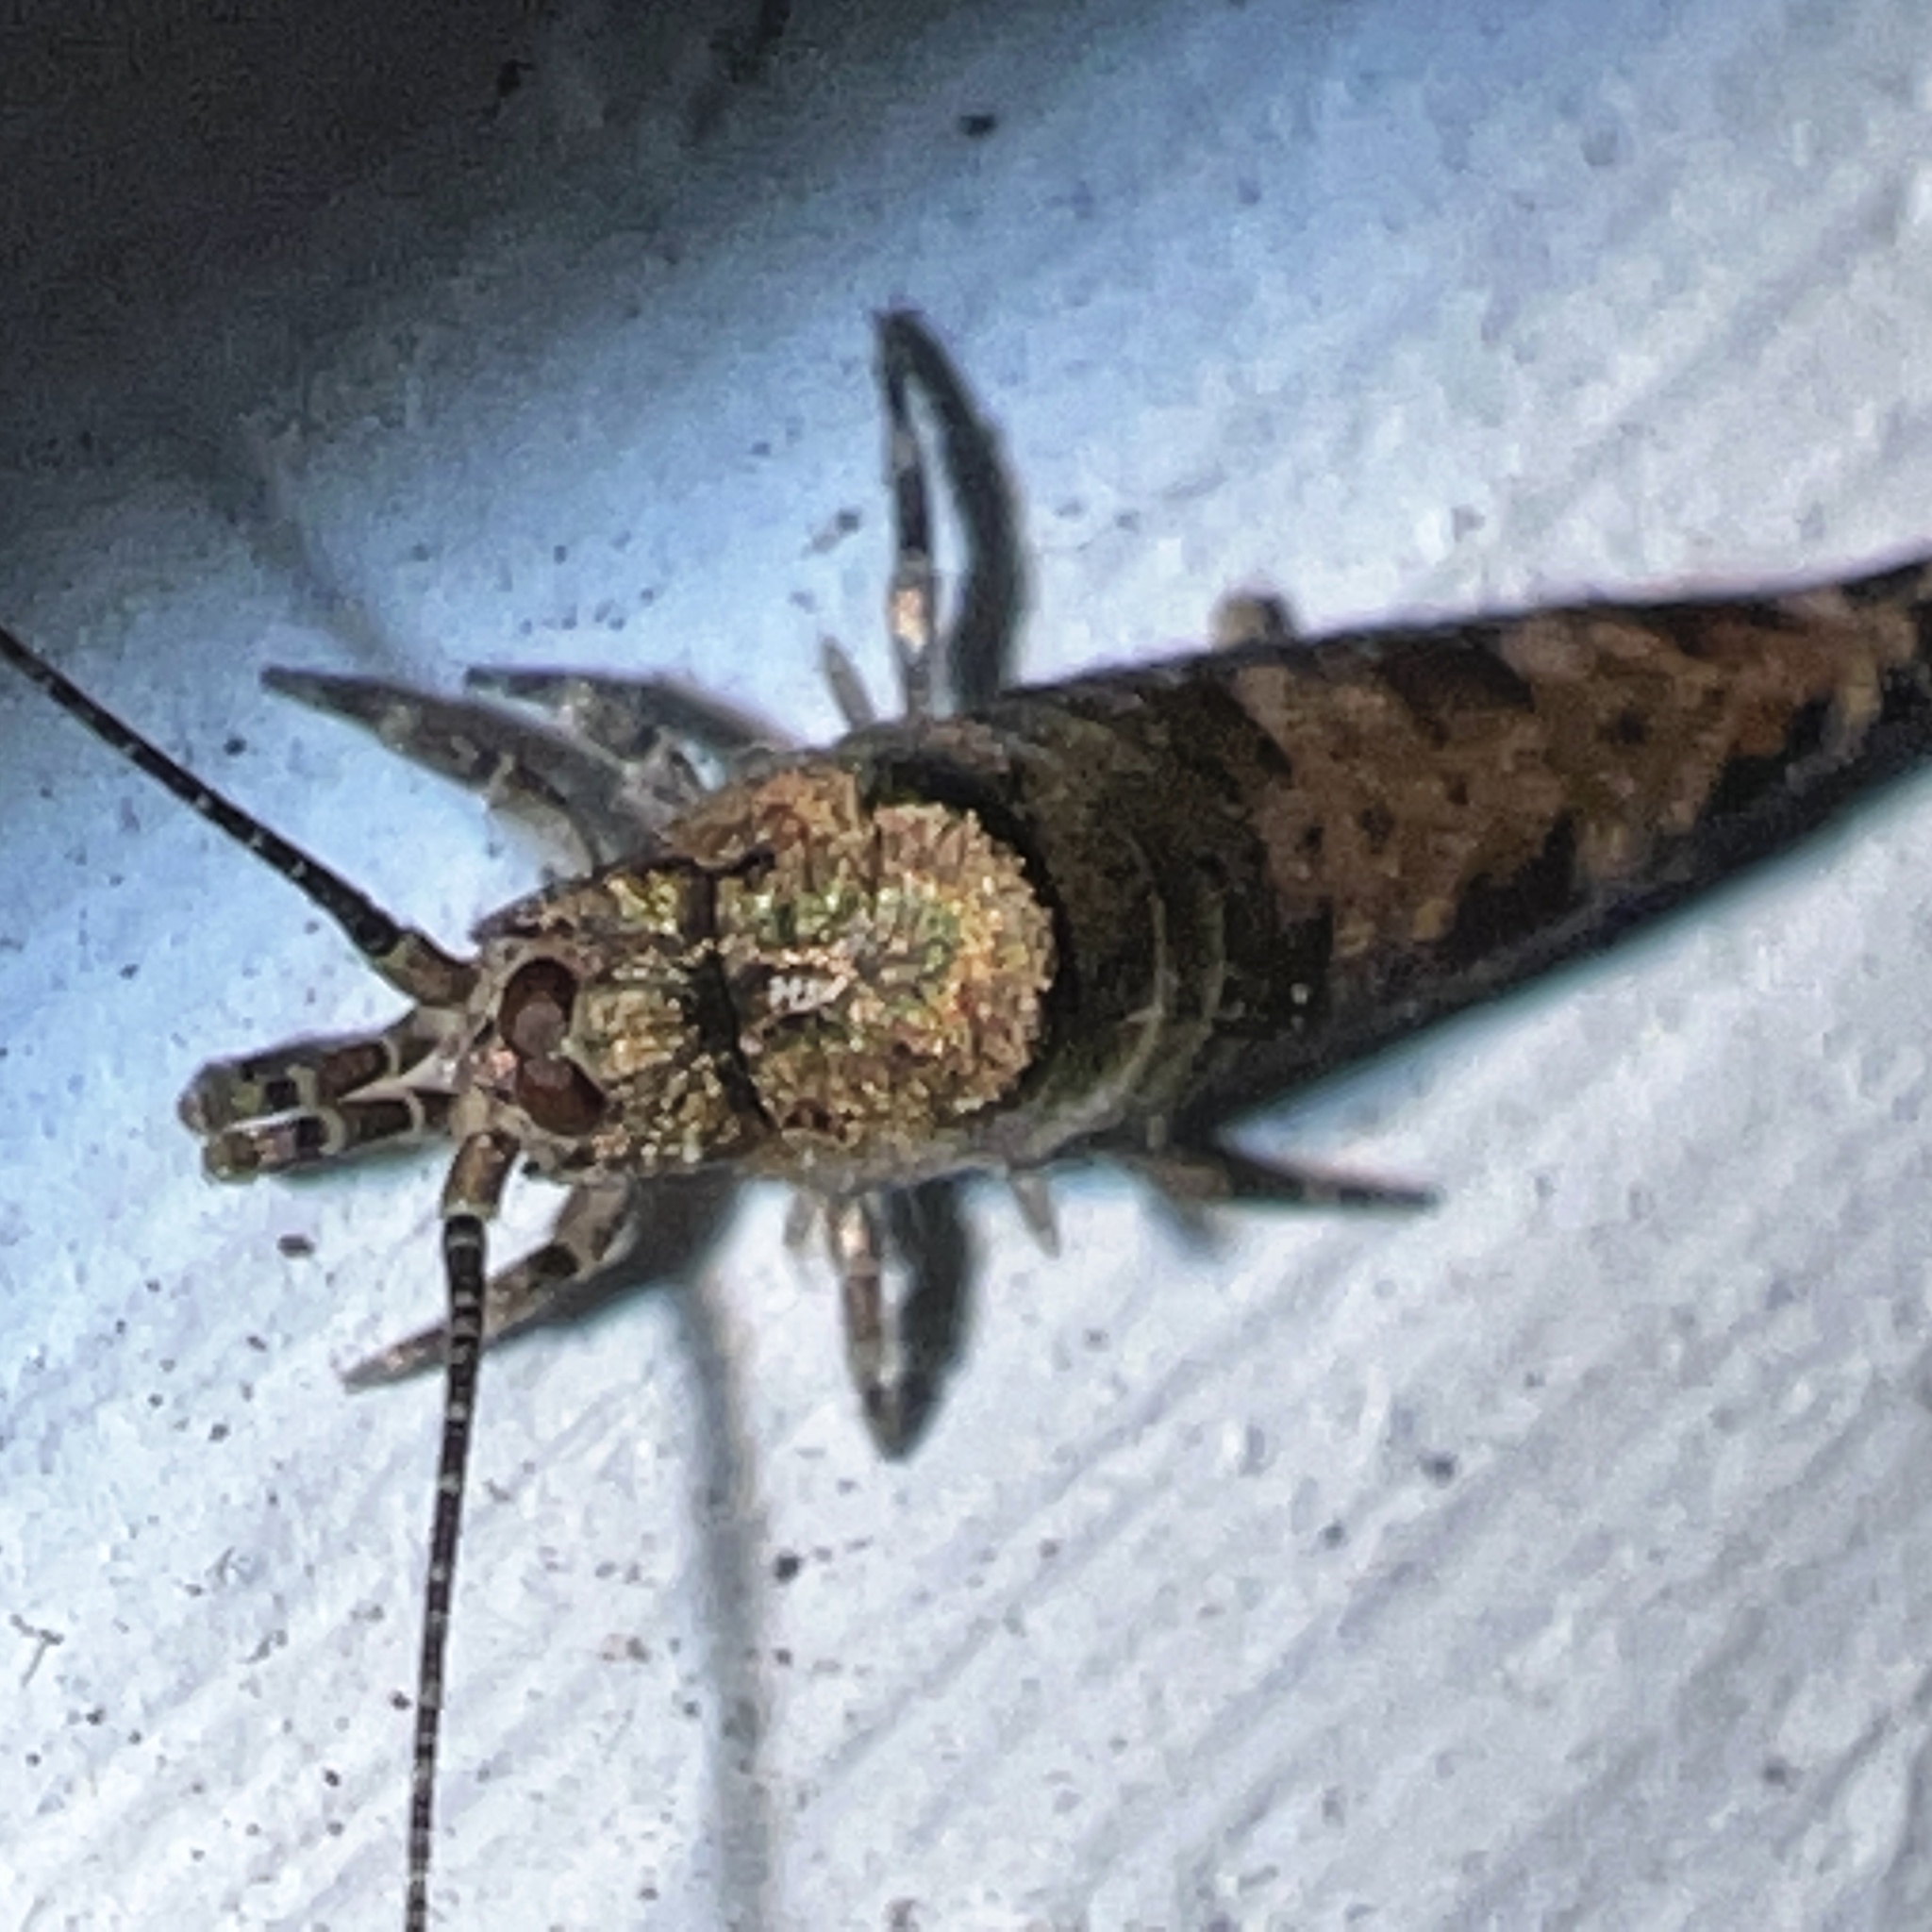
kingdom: Animalia
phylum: Arthropoda
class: Insecta
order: Archaeognatha
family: Machilidae
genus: Trigoniophthalmus
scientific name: Trigoniophthalmus alternatus
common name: Jumping bristletail
